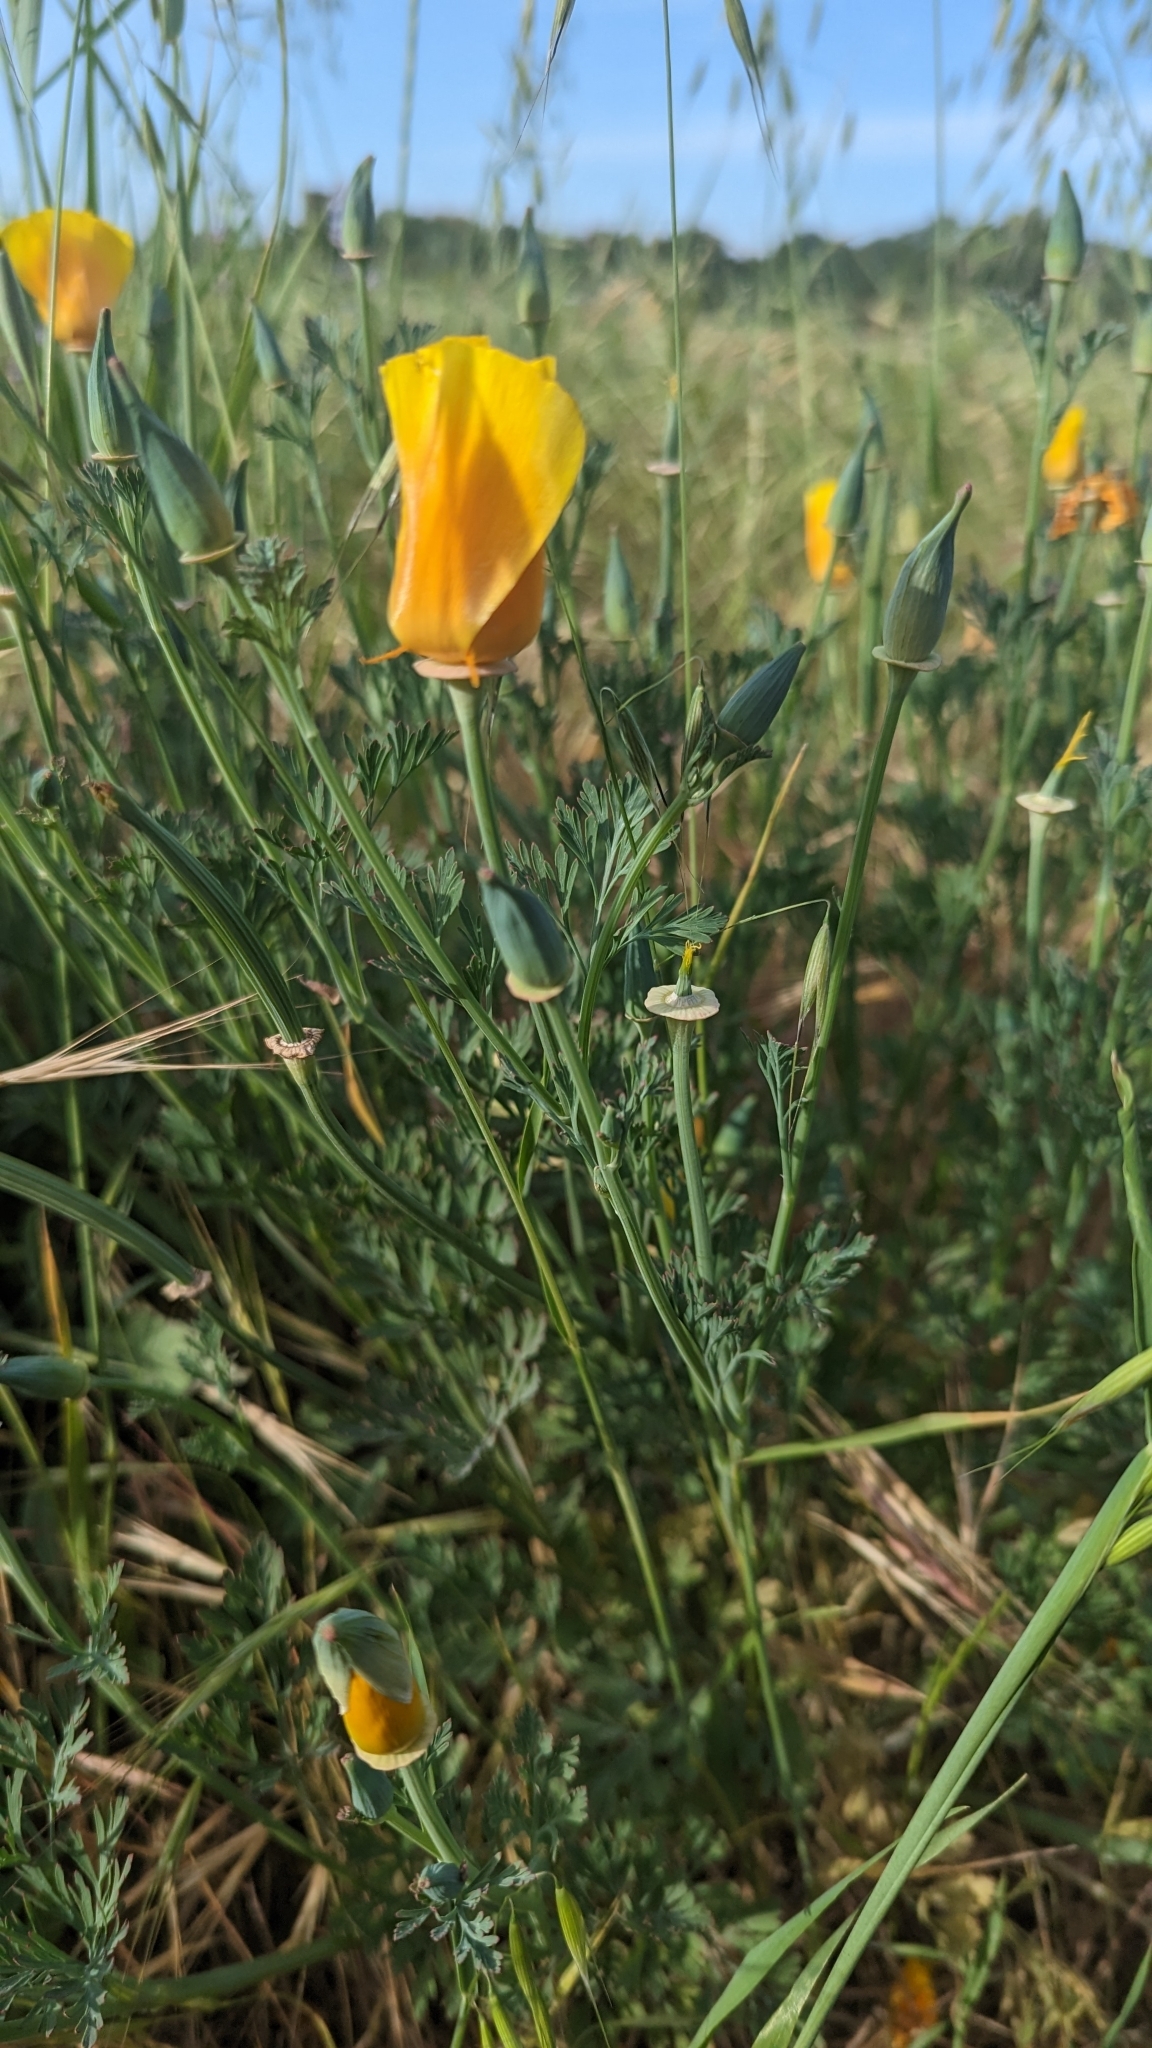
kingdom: Plantae
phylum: Tracheophyta
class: Magnoliopsida
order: Ranunculales
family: Papaveraceae
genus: Eschscholzia
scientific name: Eschscholzia californica
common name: California poppy
